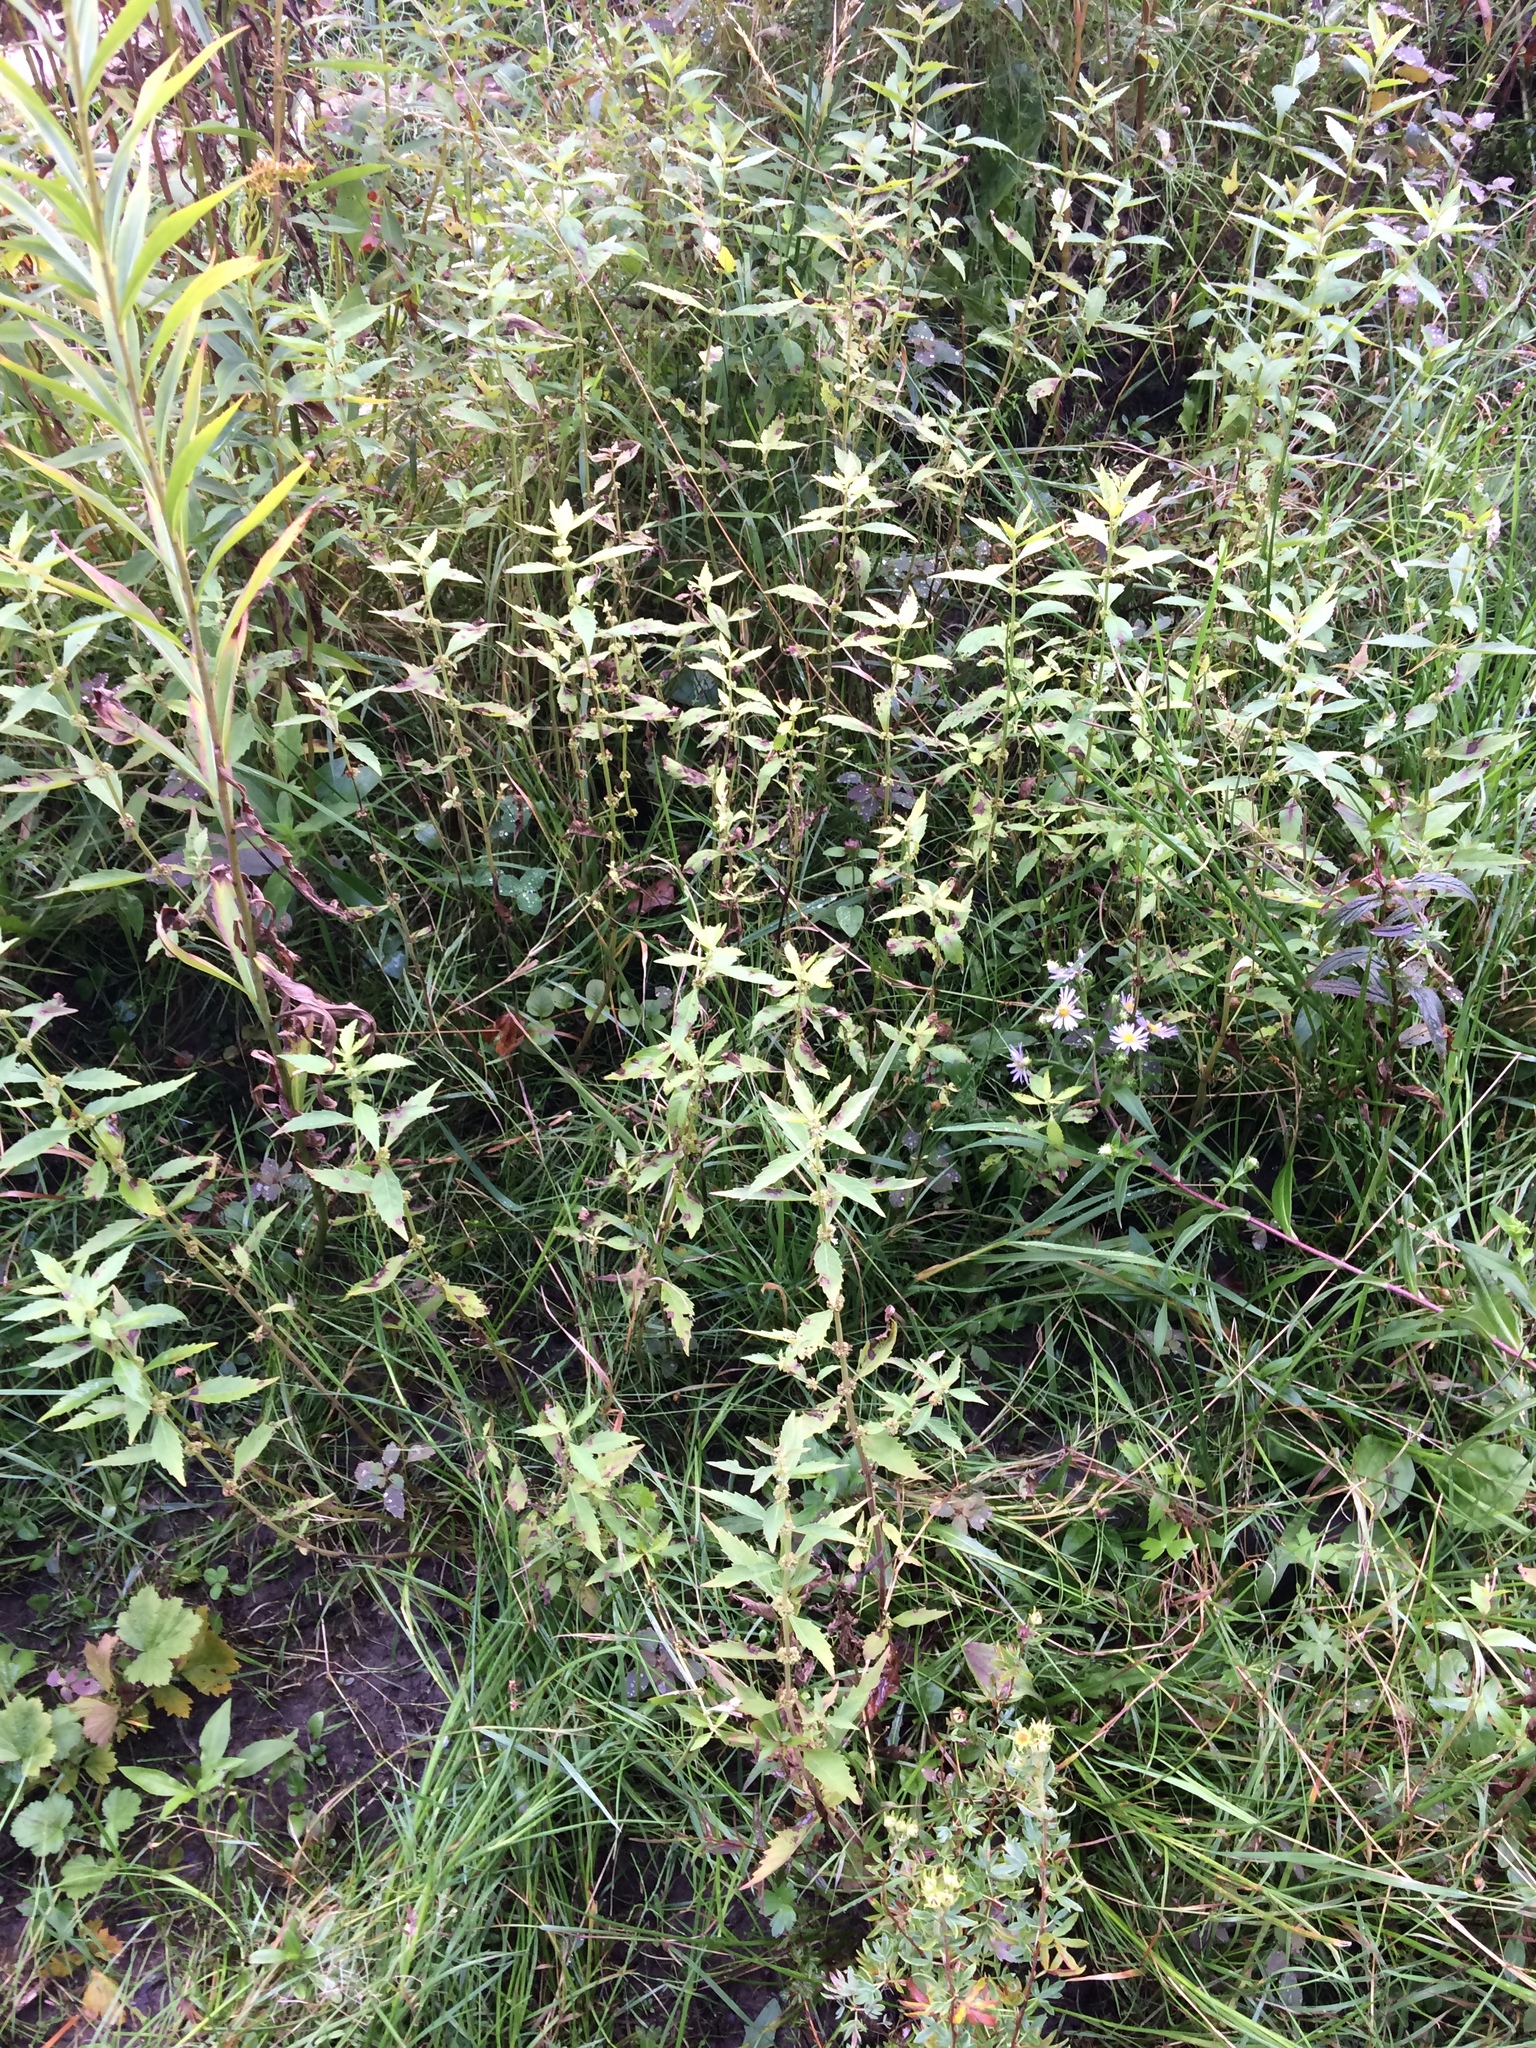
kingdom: Plantae
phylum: Tracheophyta
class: Magnoliopsida
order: Lamiales
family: Lamiaceae
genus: Lycopus
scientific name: Lycopus uniflorus
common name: Northern bugleweed
